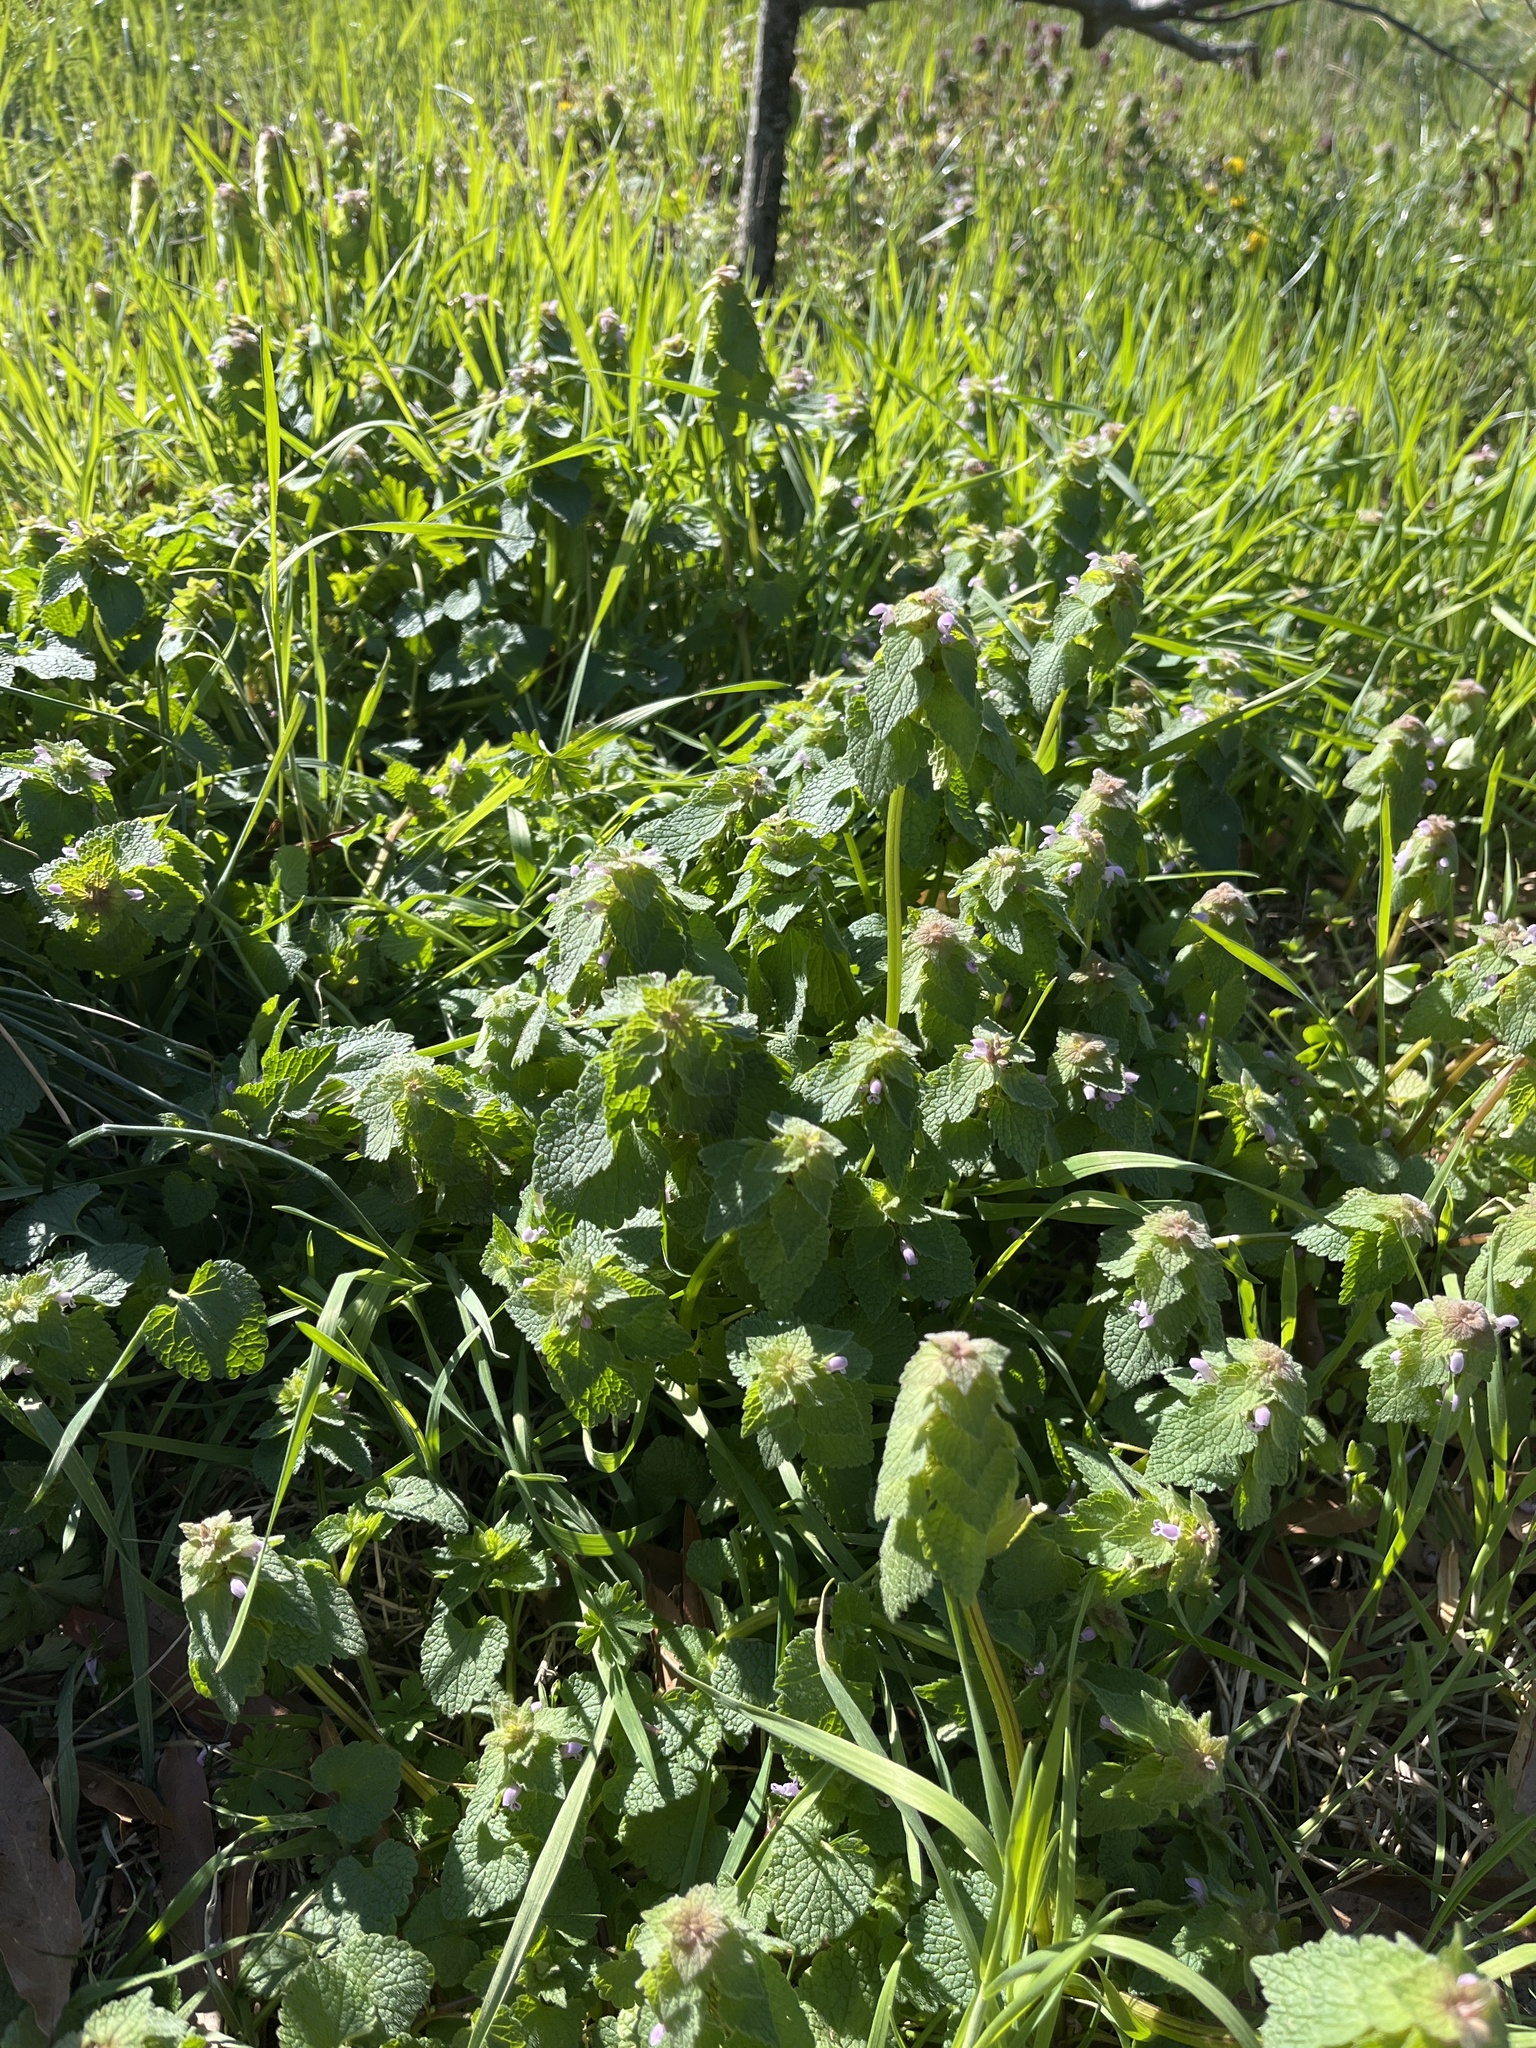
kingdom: Plantae
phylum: Tracheophyta
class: Magnoliopsida
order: Lamiales
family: Lamiaceae
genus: Lamium
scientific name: Lamium purpureum
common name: Red dead-nettle
